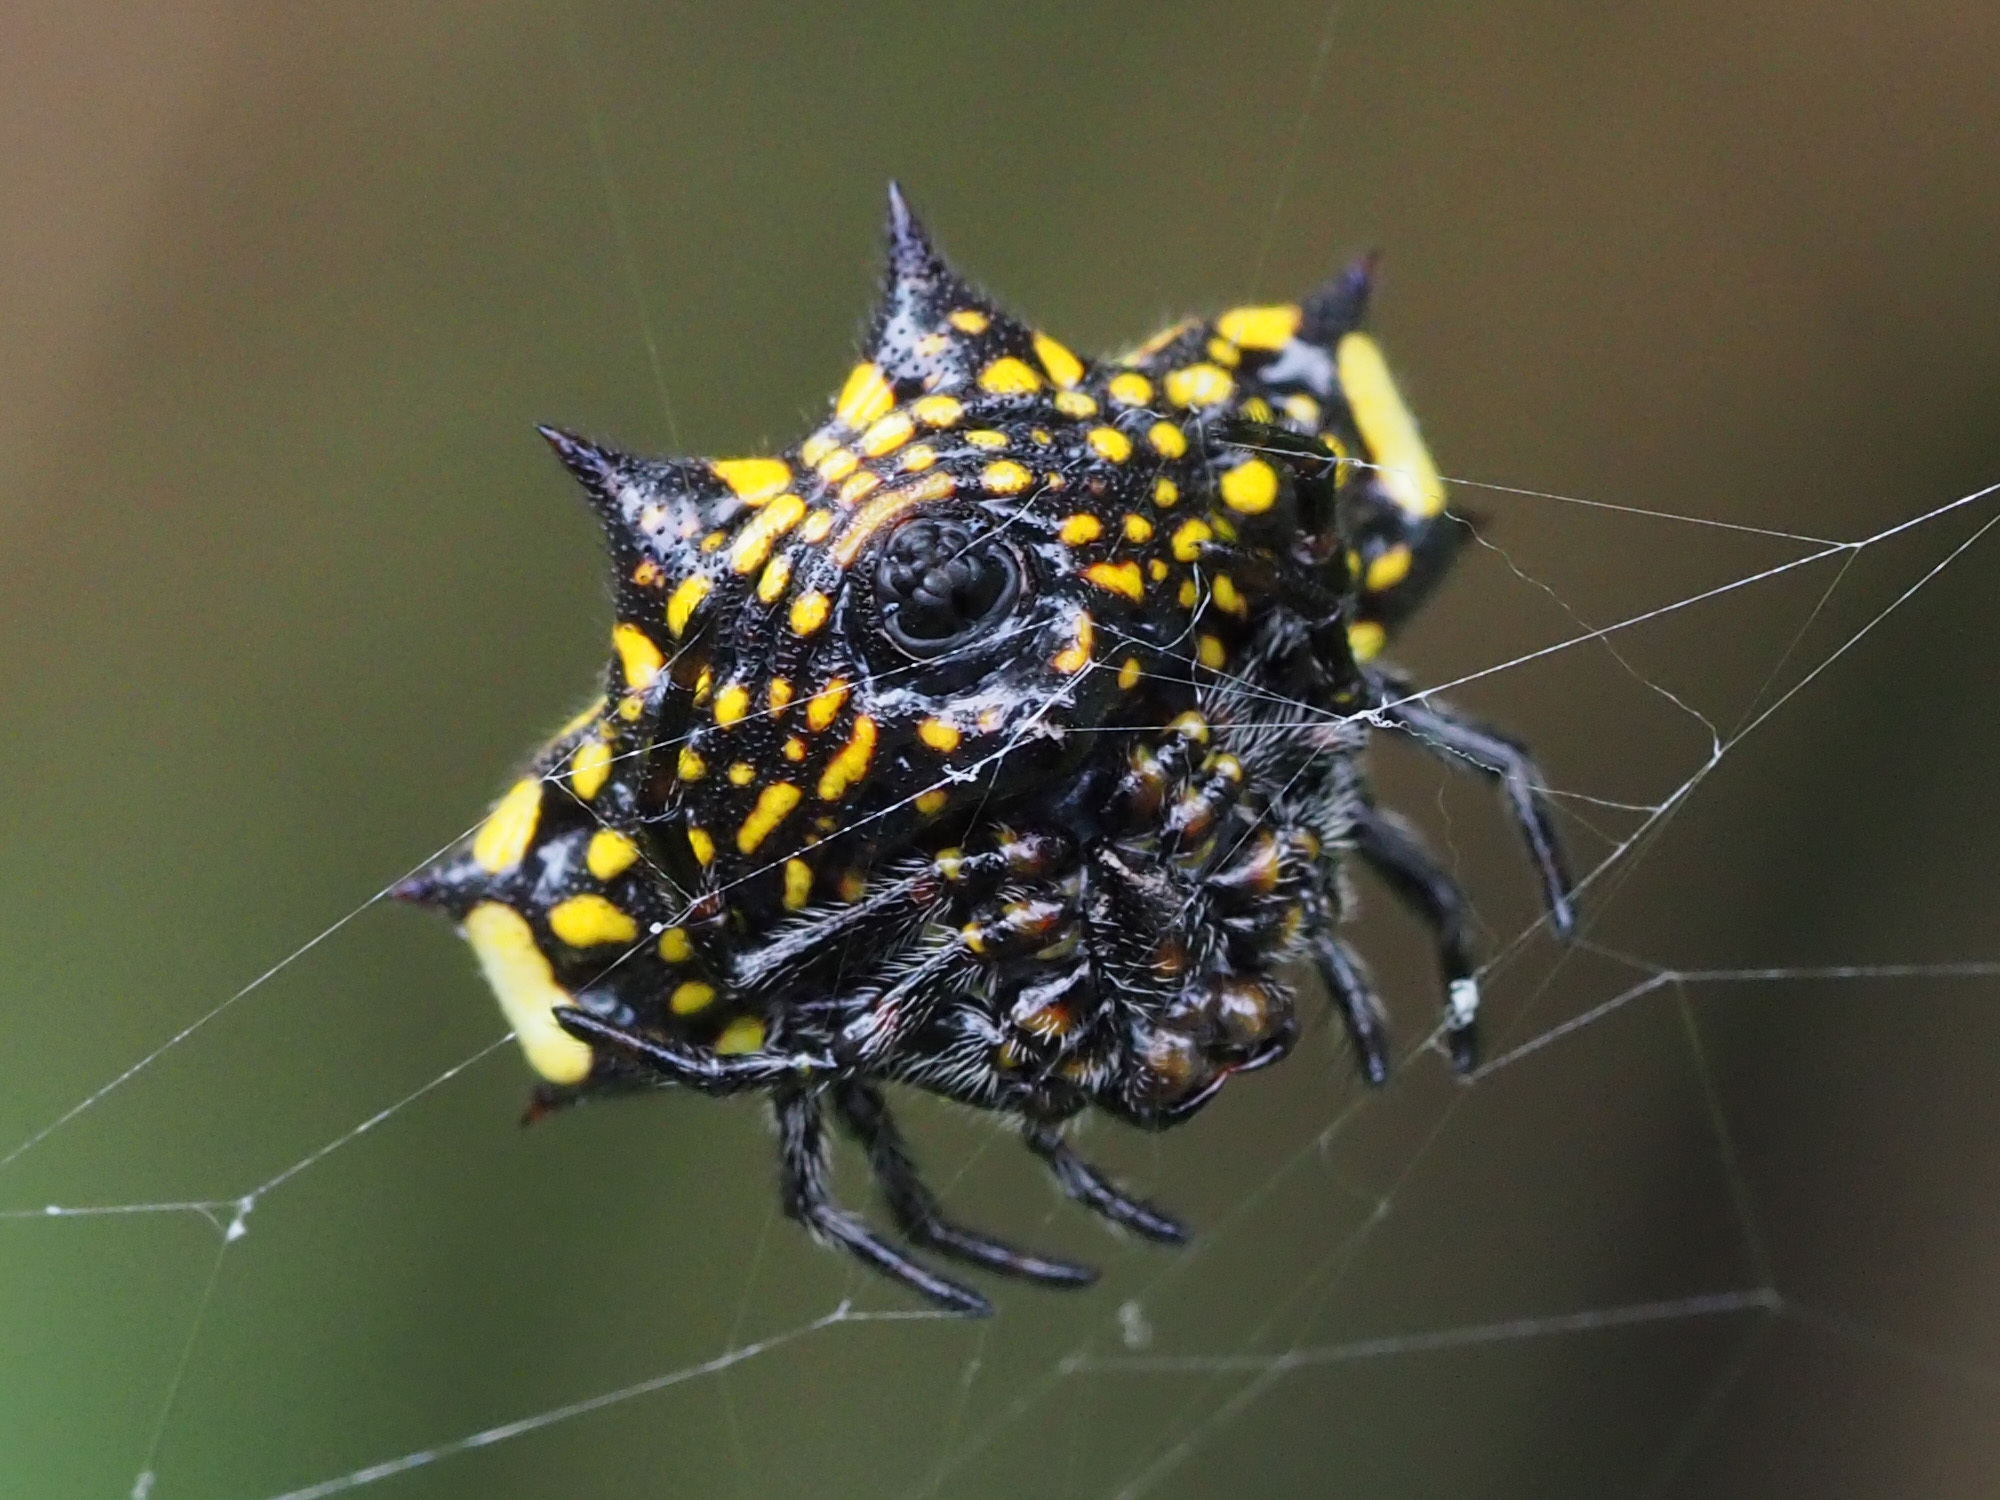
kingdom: Animalia
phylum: Arthropoda
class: Arachnida
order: Araneae
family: Araneidae
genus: Gasteracantha
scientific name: Gasteracantha cancriformis
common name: Orb weavers
